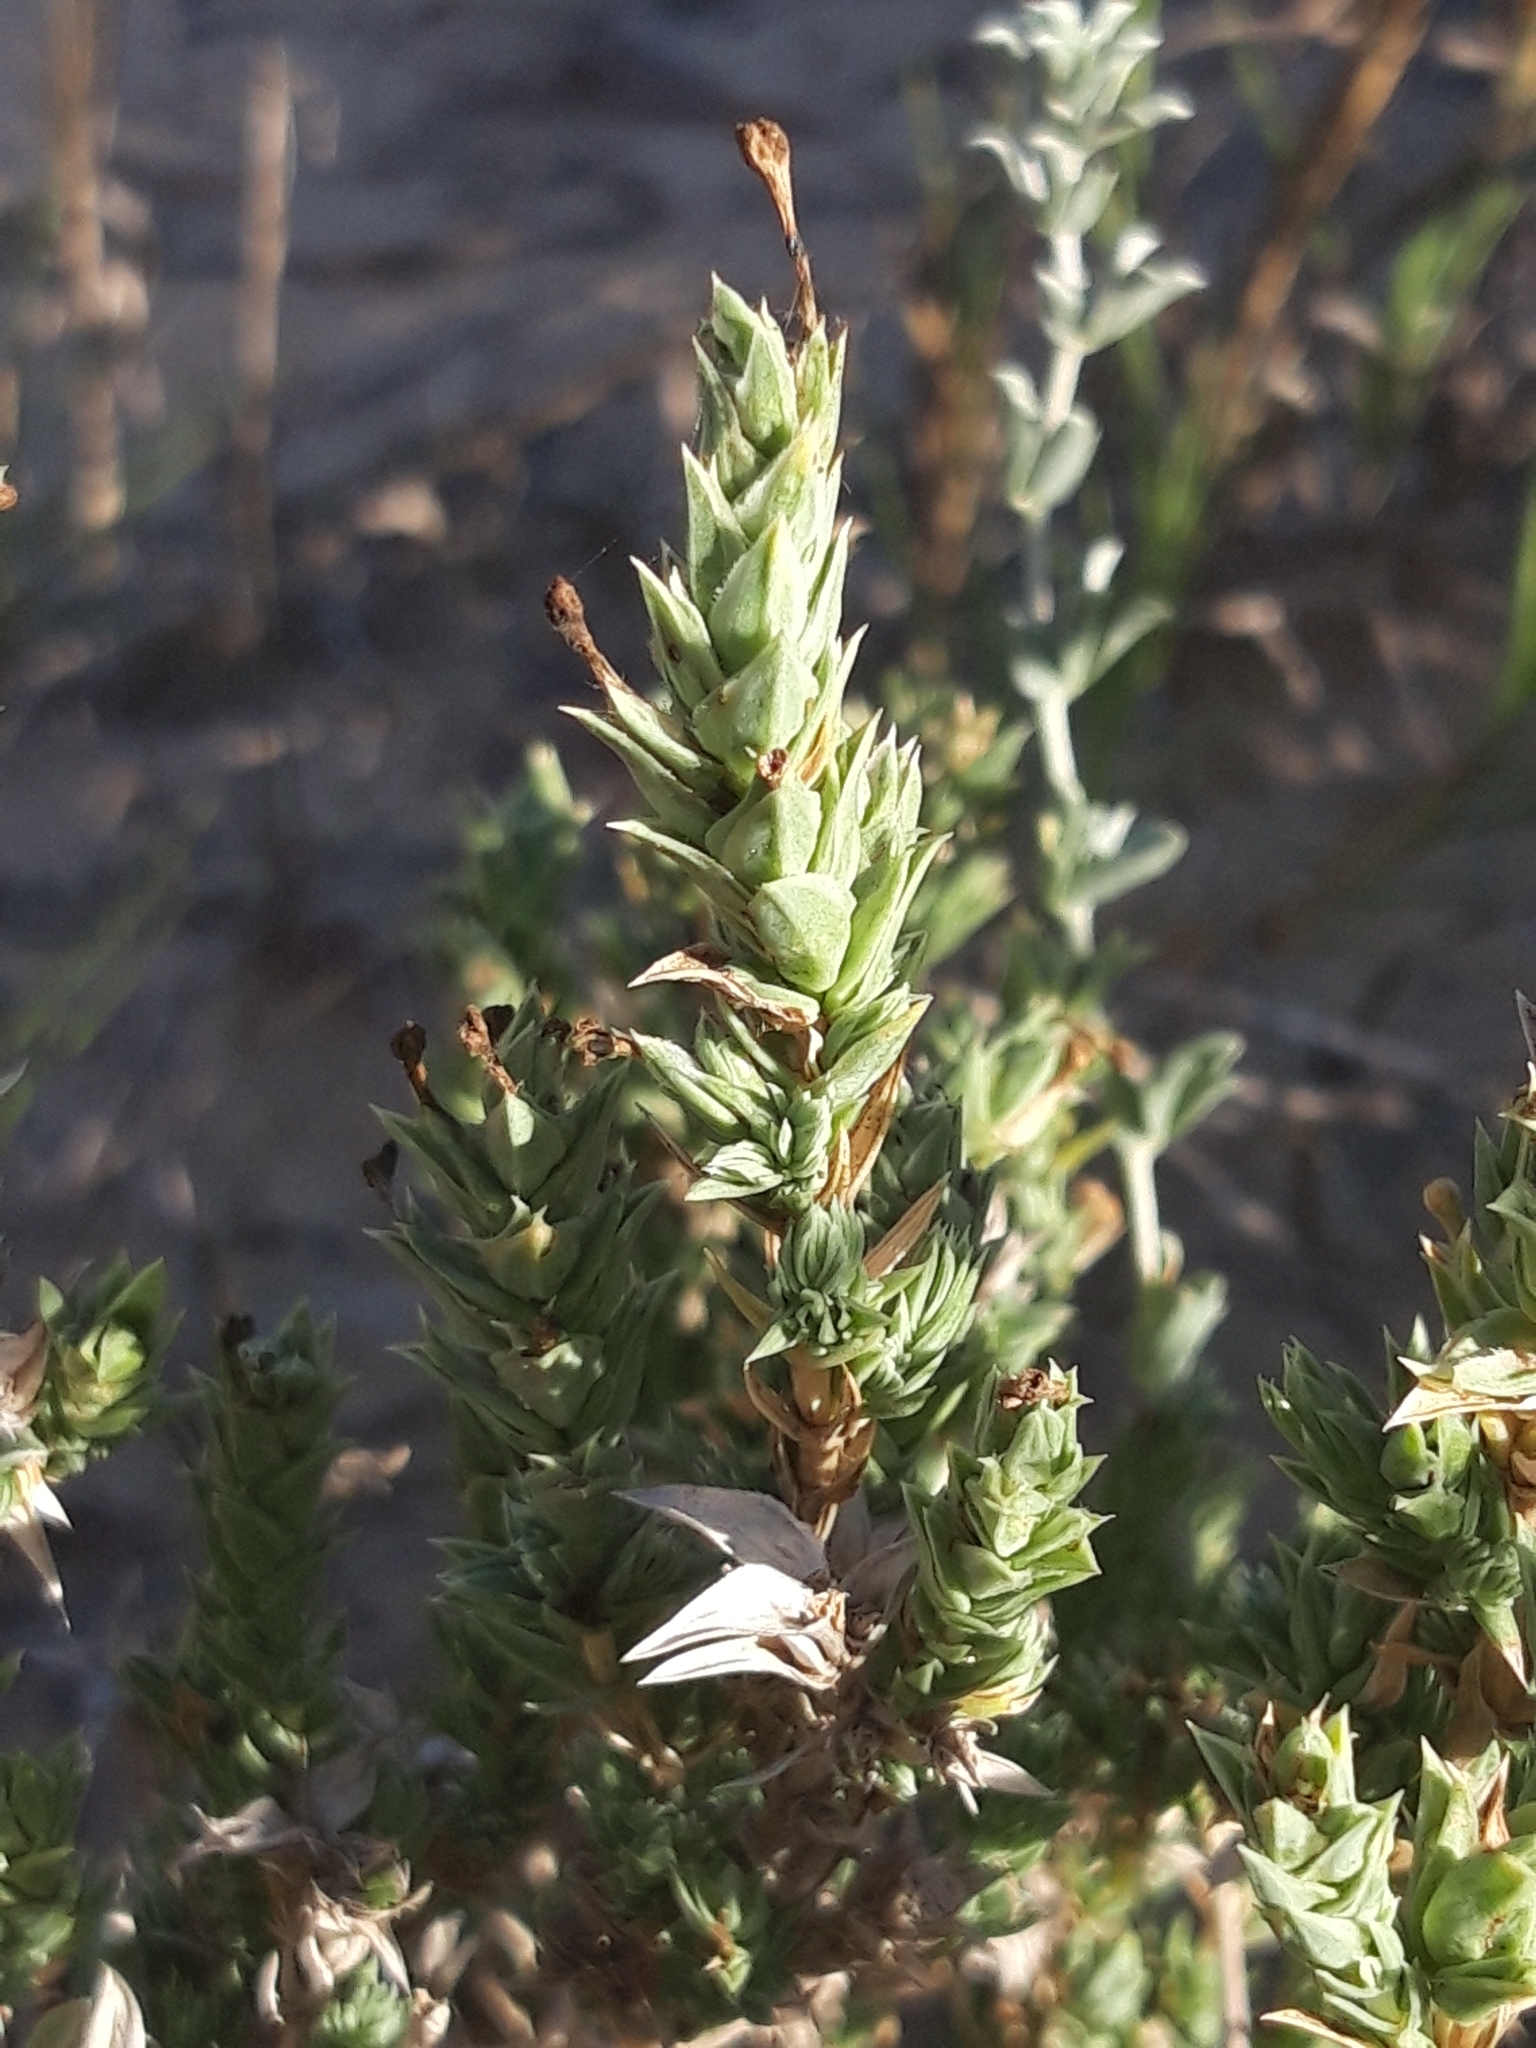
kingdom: Plantae
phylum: Tracheophyta
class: Magnoliopsida
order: Gentianales
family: Rubiaceae
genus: Crucianella
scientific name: Crucianella maritima
